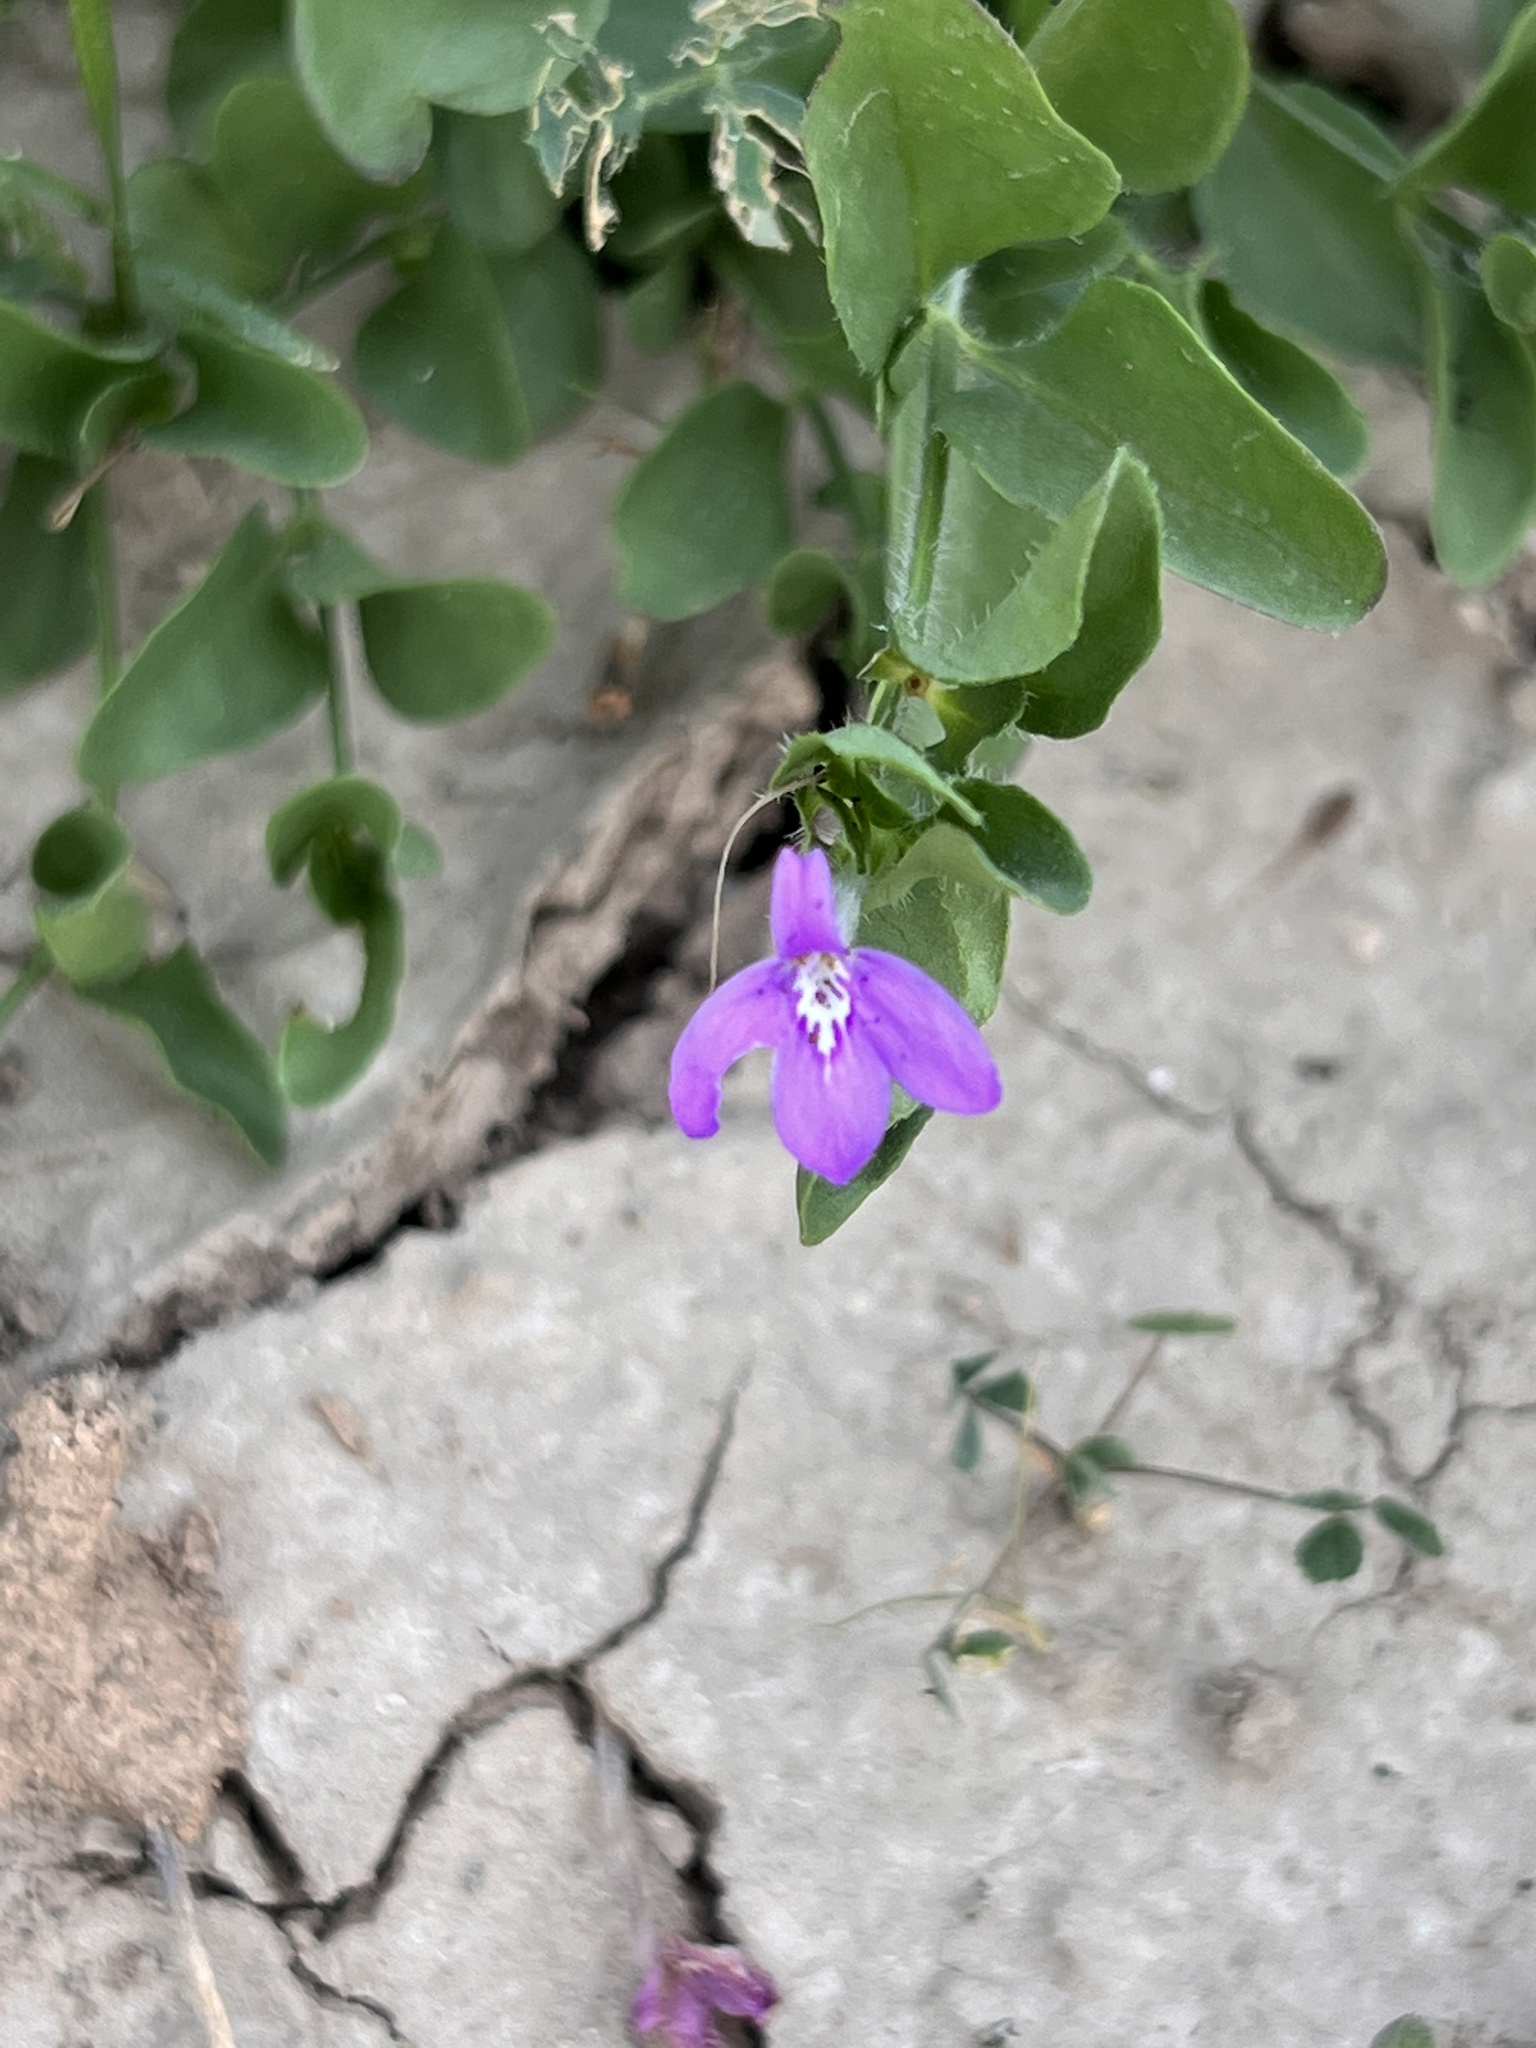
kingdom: Plantae
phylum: Tracheophyta
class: Magnoliopsida
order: Lamiales
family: Acanthaceae
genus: Justicia
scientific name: Justicia pilosella
